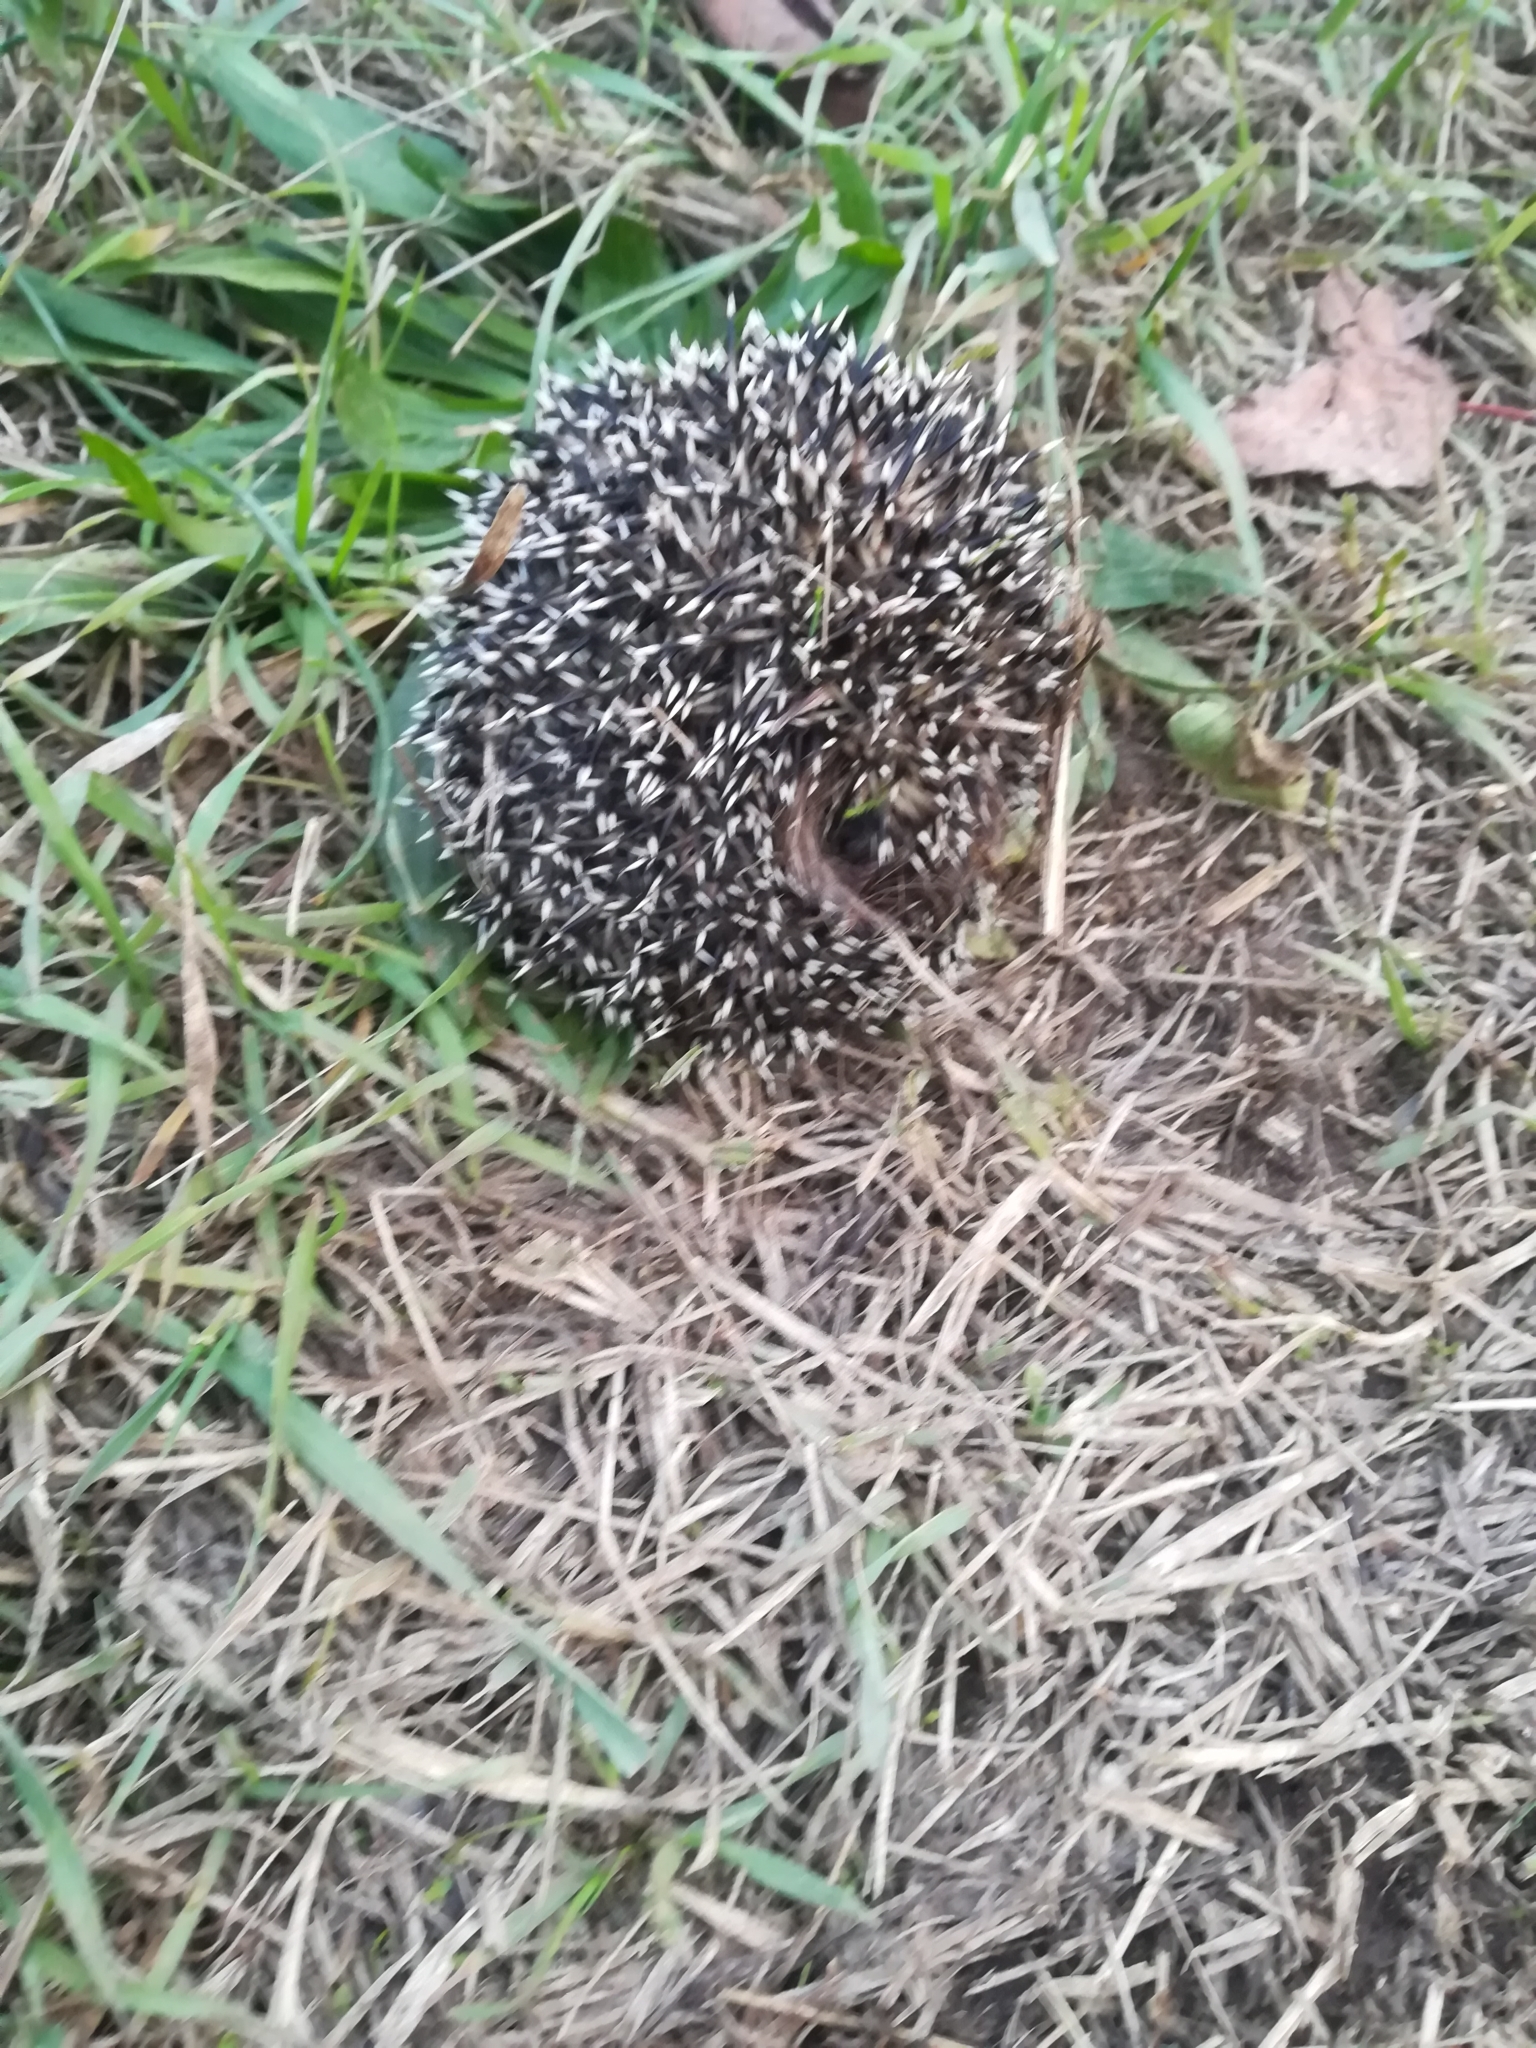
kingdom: Animalia
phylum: Chordata
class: Mammalia
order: Erinaceomorpha
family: Erinaceidae
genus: Erinaceus
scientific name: Erinaceus europaeus
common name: West european hedgehog
